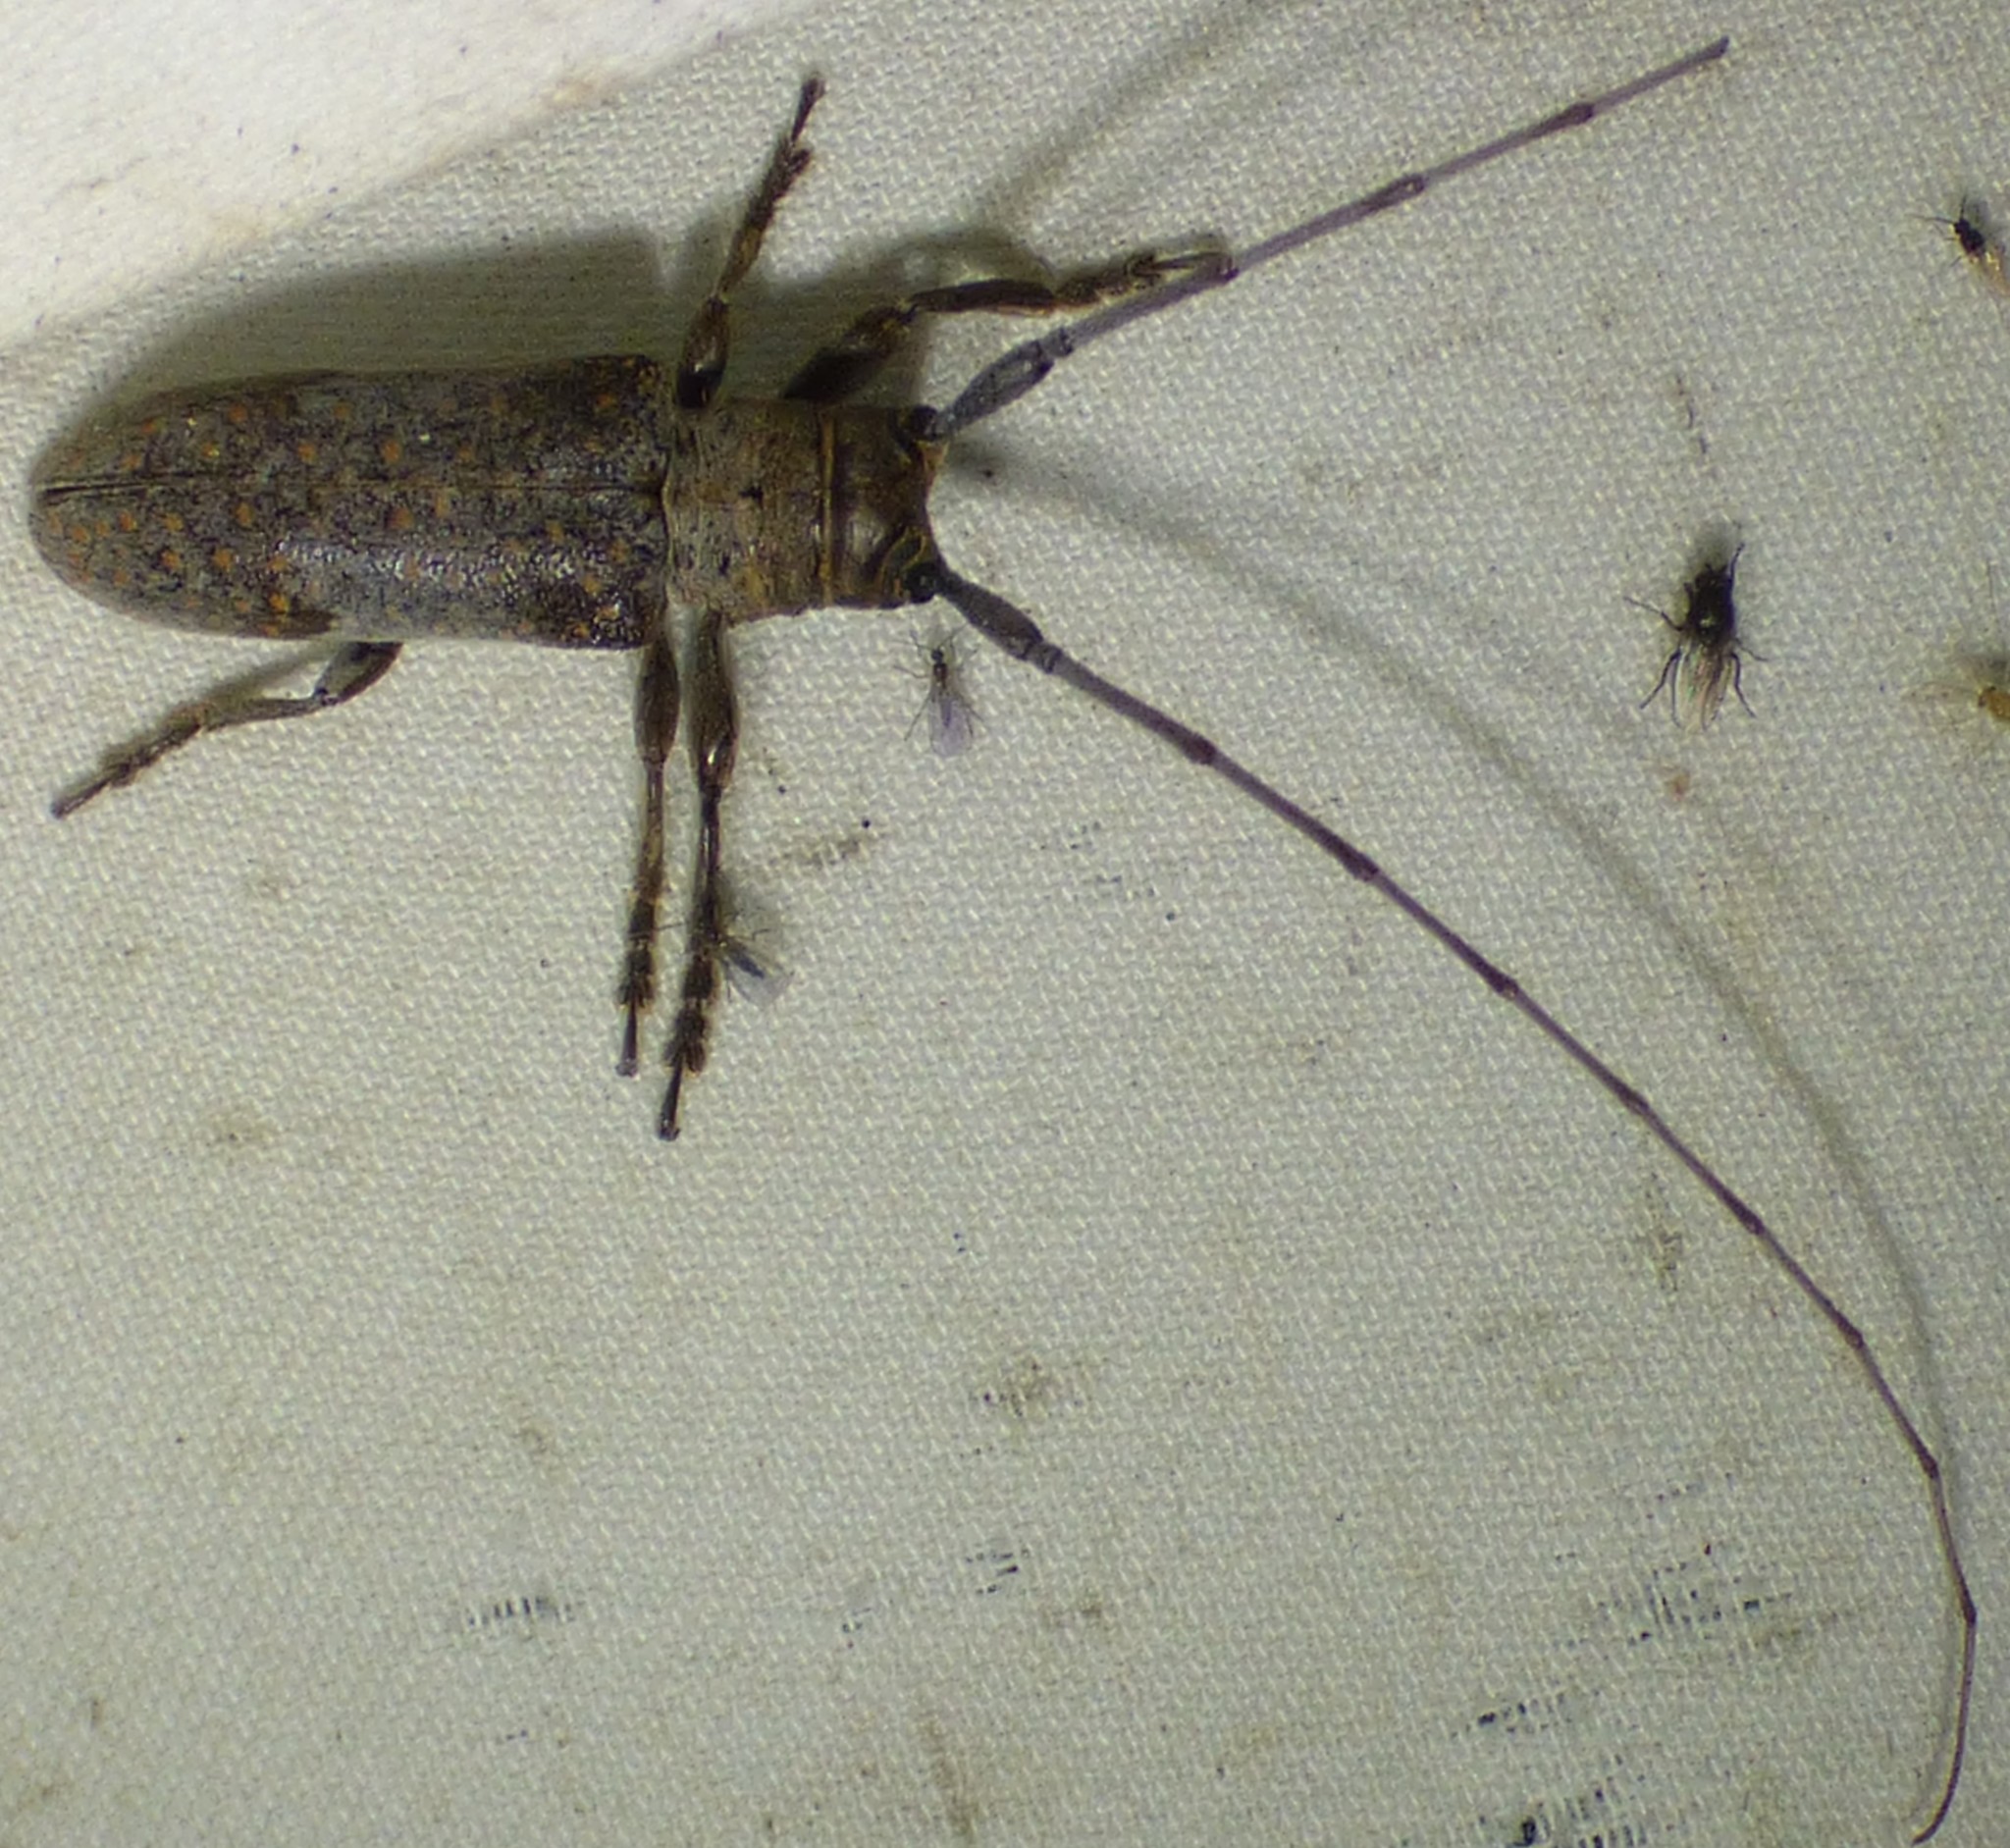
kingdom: Animalia
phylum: Arthropoda
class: Insecta
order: Coleoptera
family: Cerambycidae
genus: Oncideres
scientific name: Oncideres cingulata
